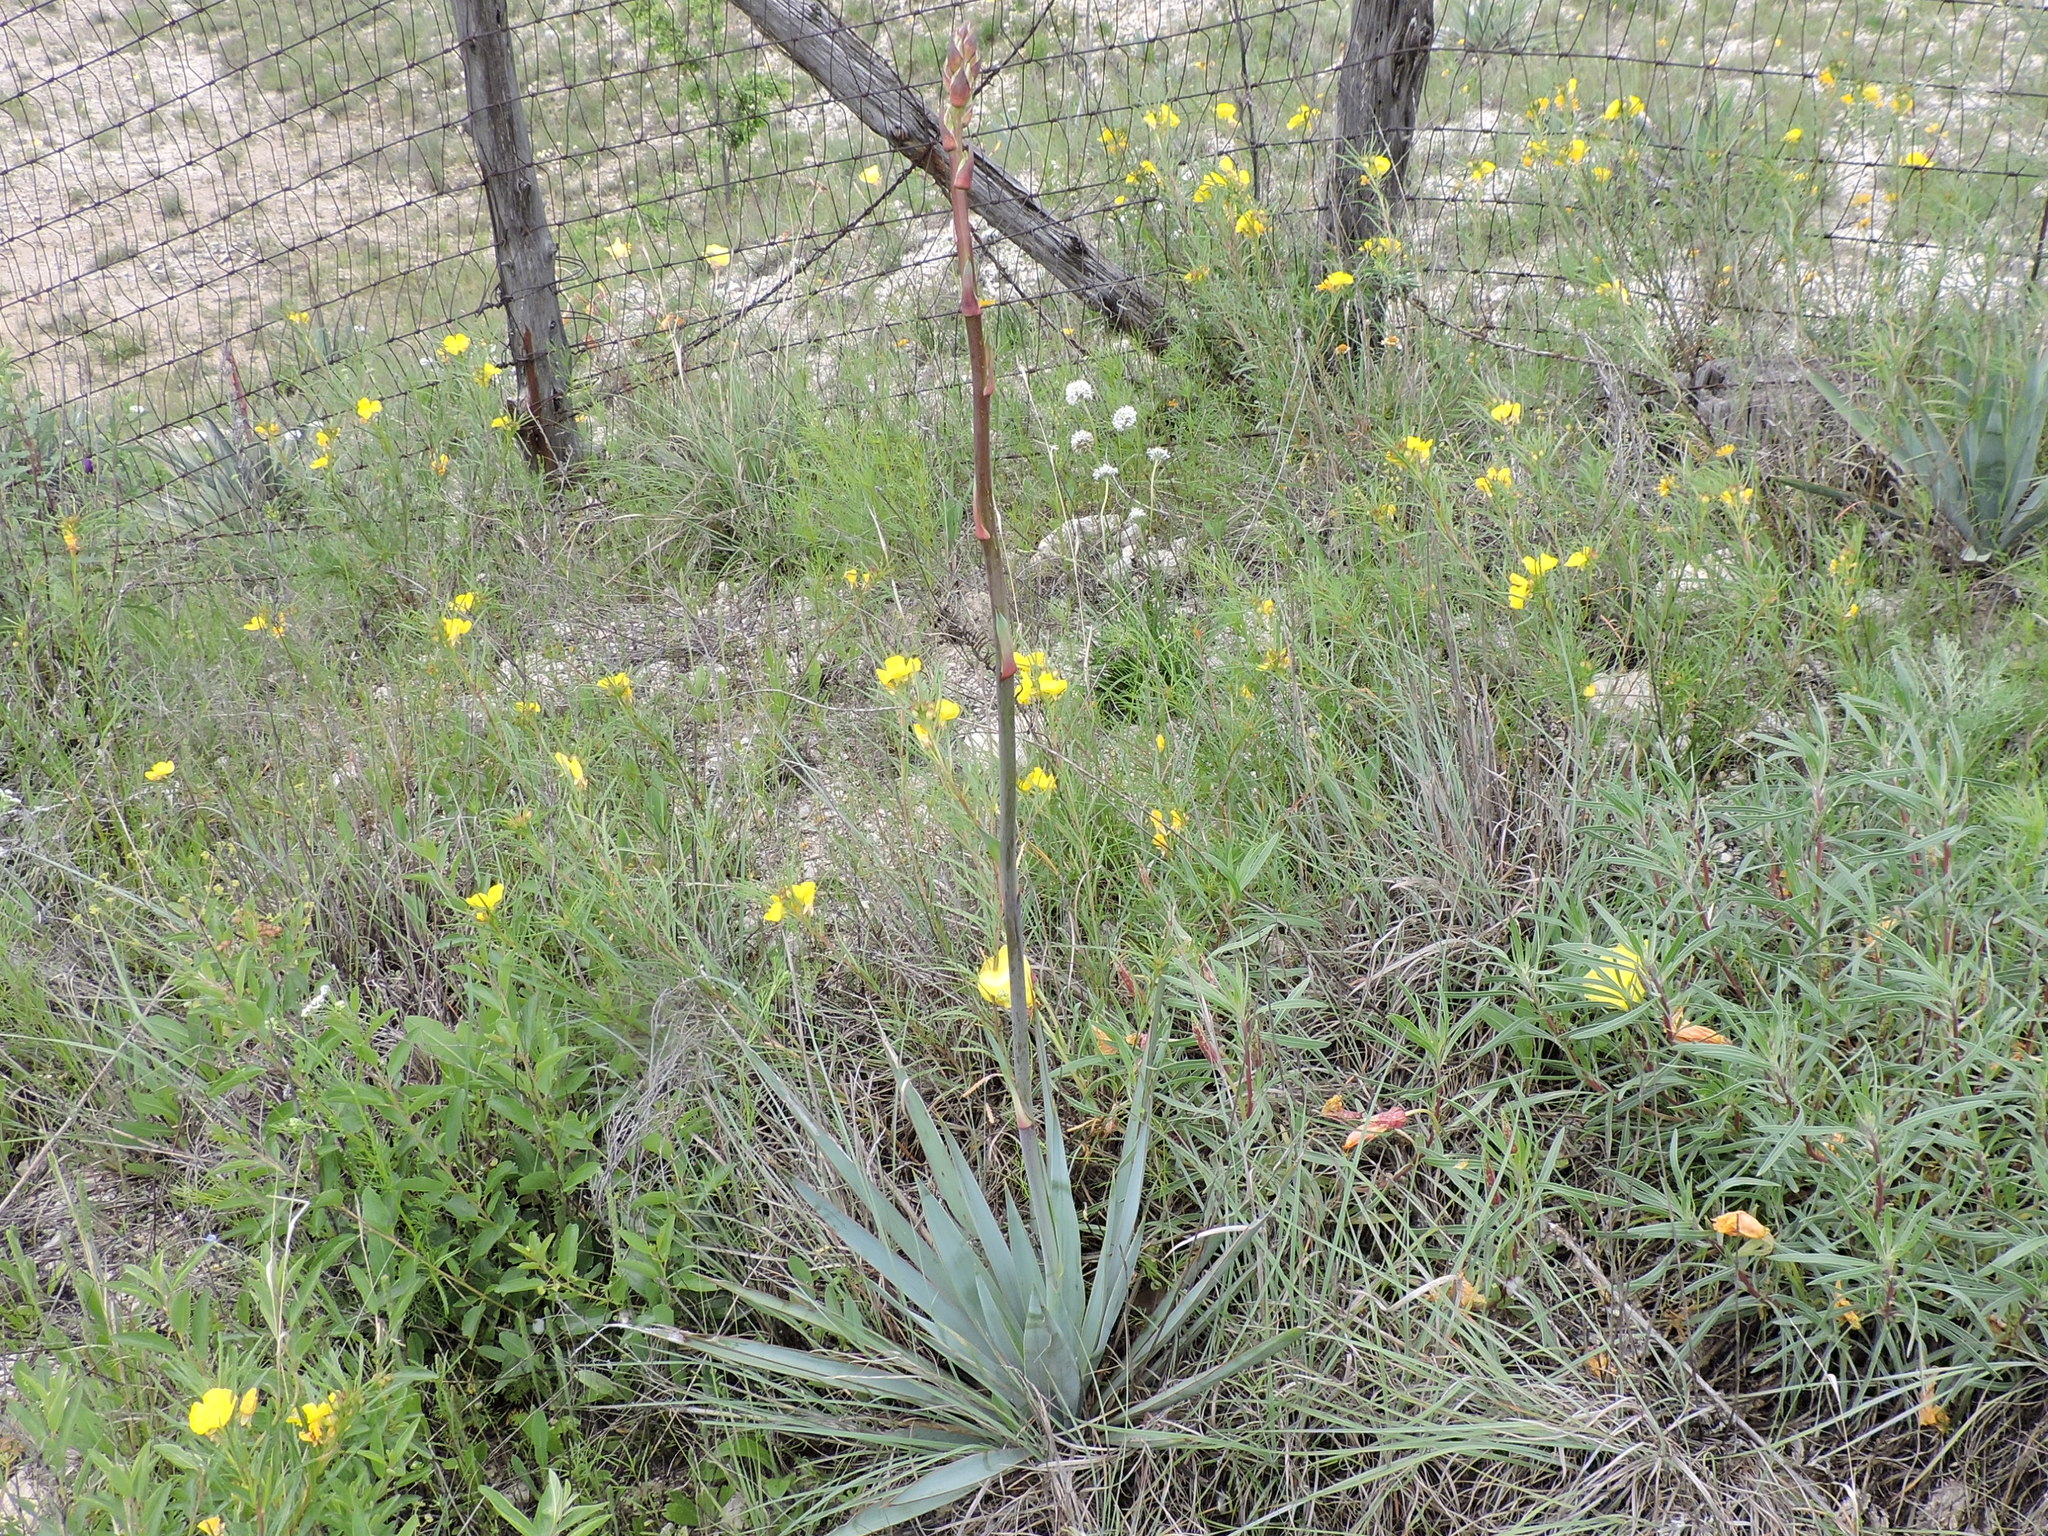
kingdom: Plantae
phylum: Tracheophyta
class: Liliopsida
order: Asparagales
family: Asparagaceae
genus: Yucca
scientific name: Yucca pallida
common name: Pale leaf yucca
